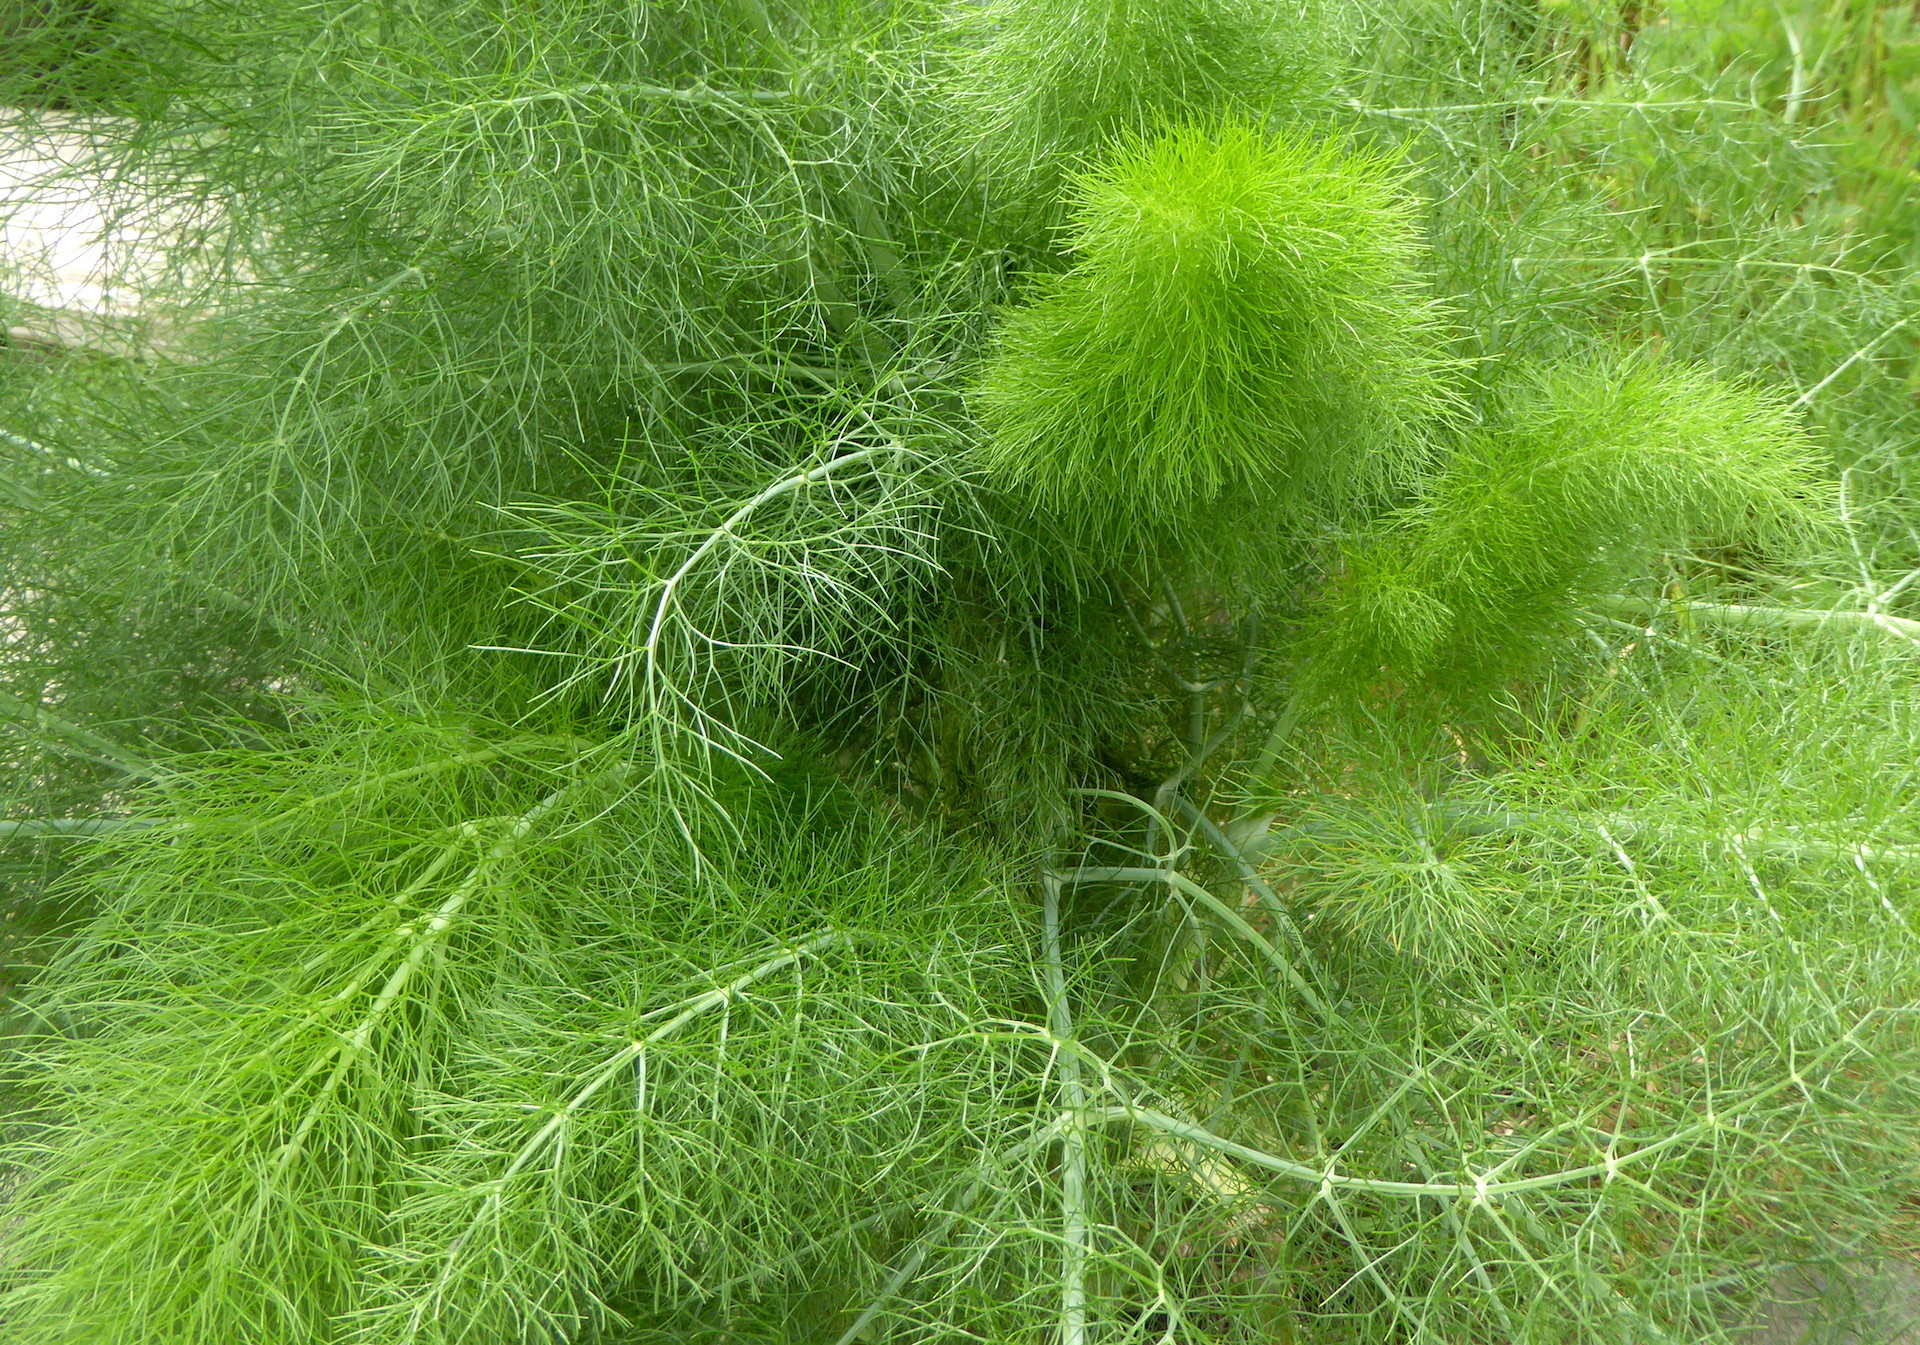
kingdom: Plantae
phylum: Tracheophyta
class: Magnoliopsida
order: Apiales
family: Apiaceae
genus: Foeniculum
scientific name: Foeniculum vulgare
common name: Fennel
